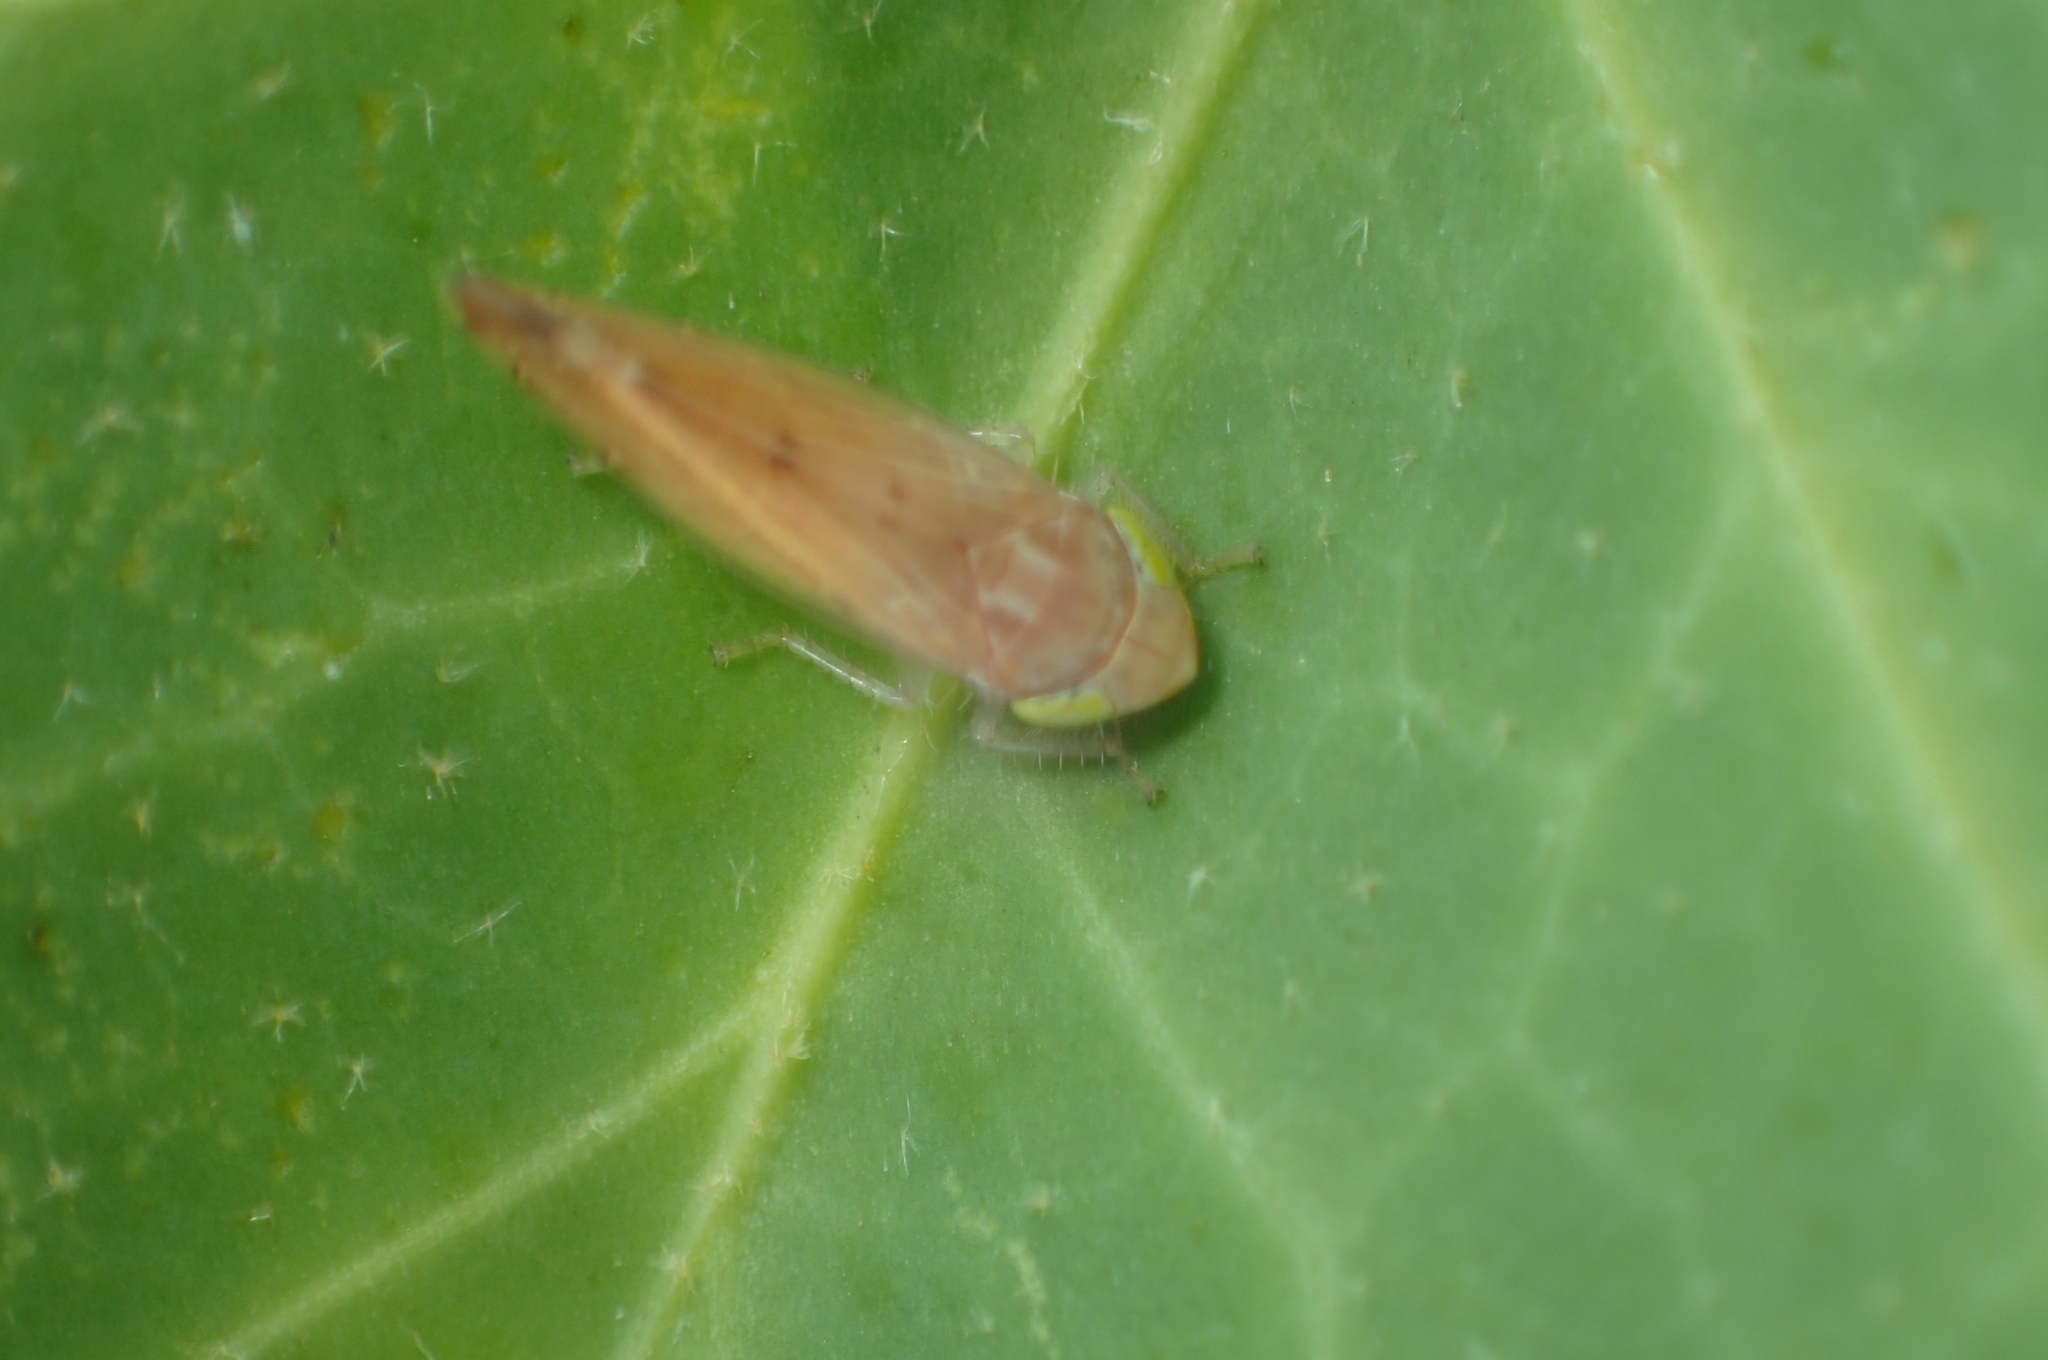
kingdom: Animalia
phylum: Arthropoda
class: Insecta
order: Hemiptera
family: Cicadellidae
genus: Synophropsis
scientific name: Synophropsis lauri
